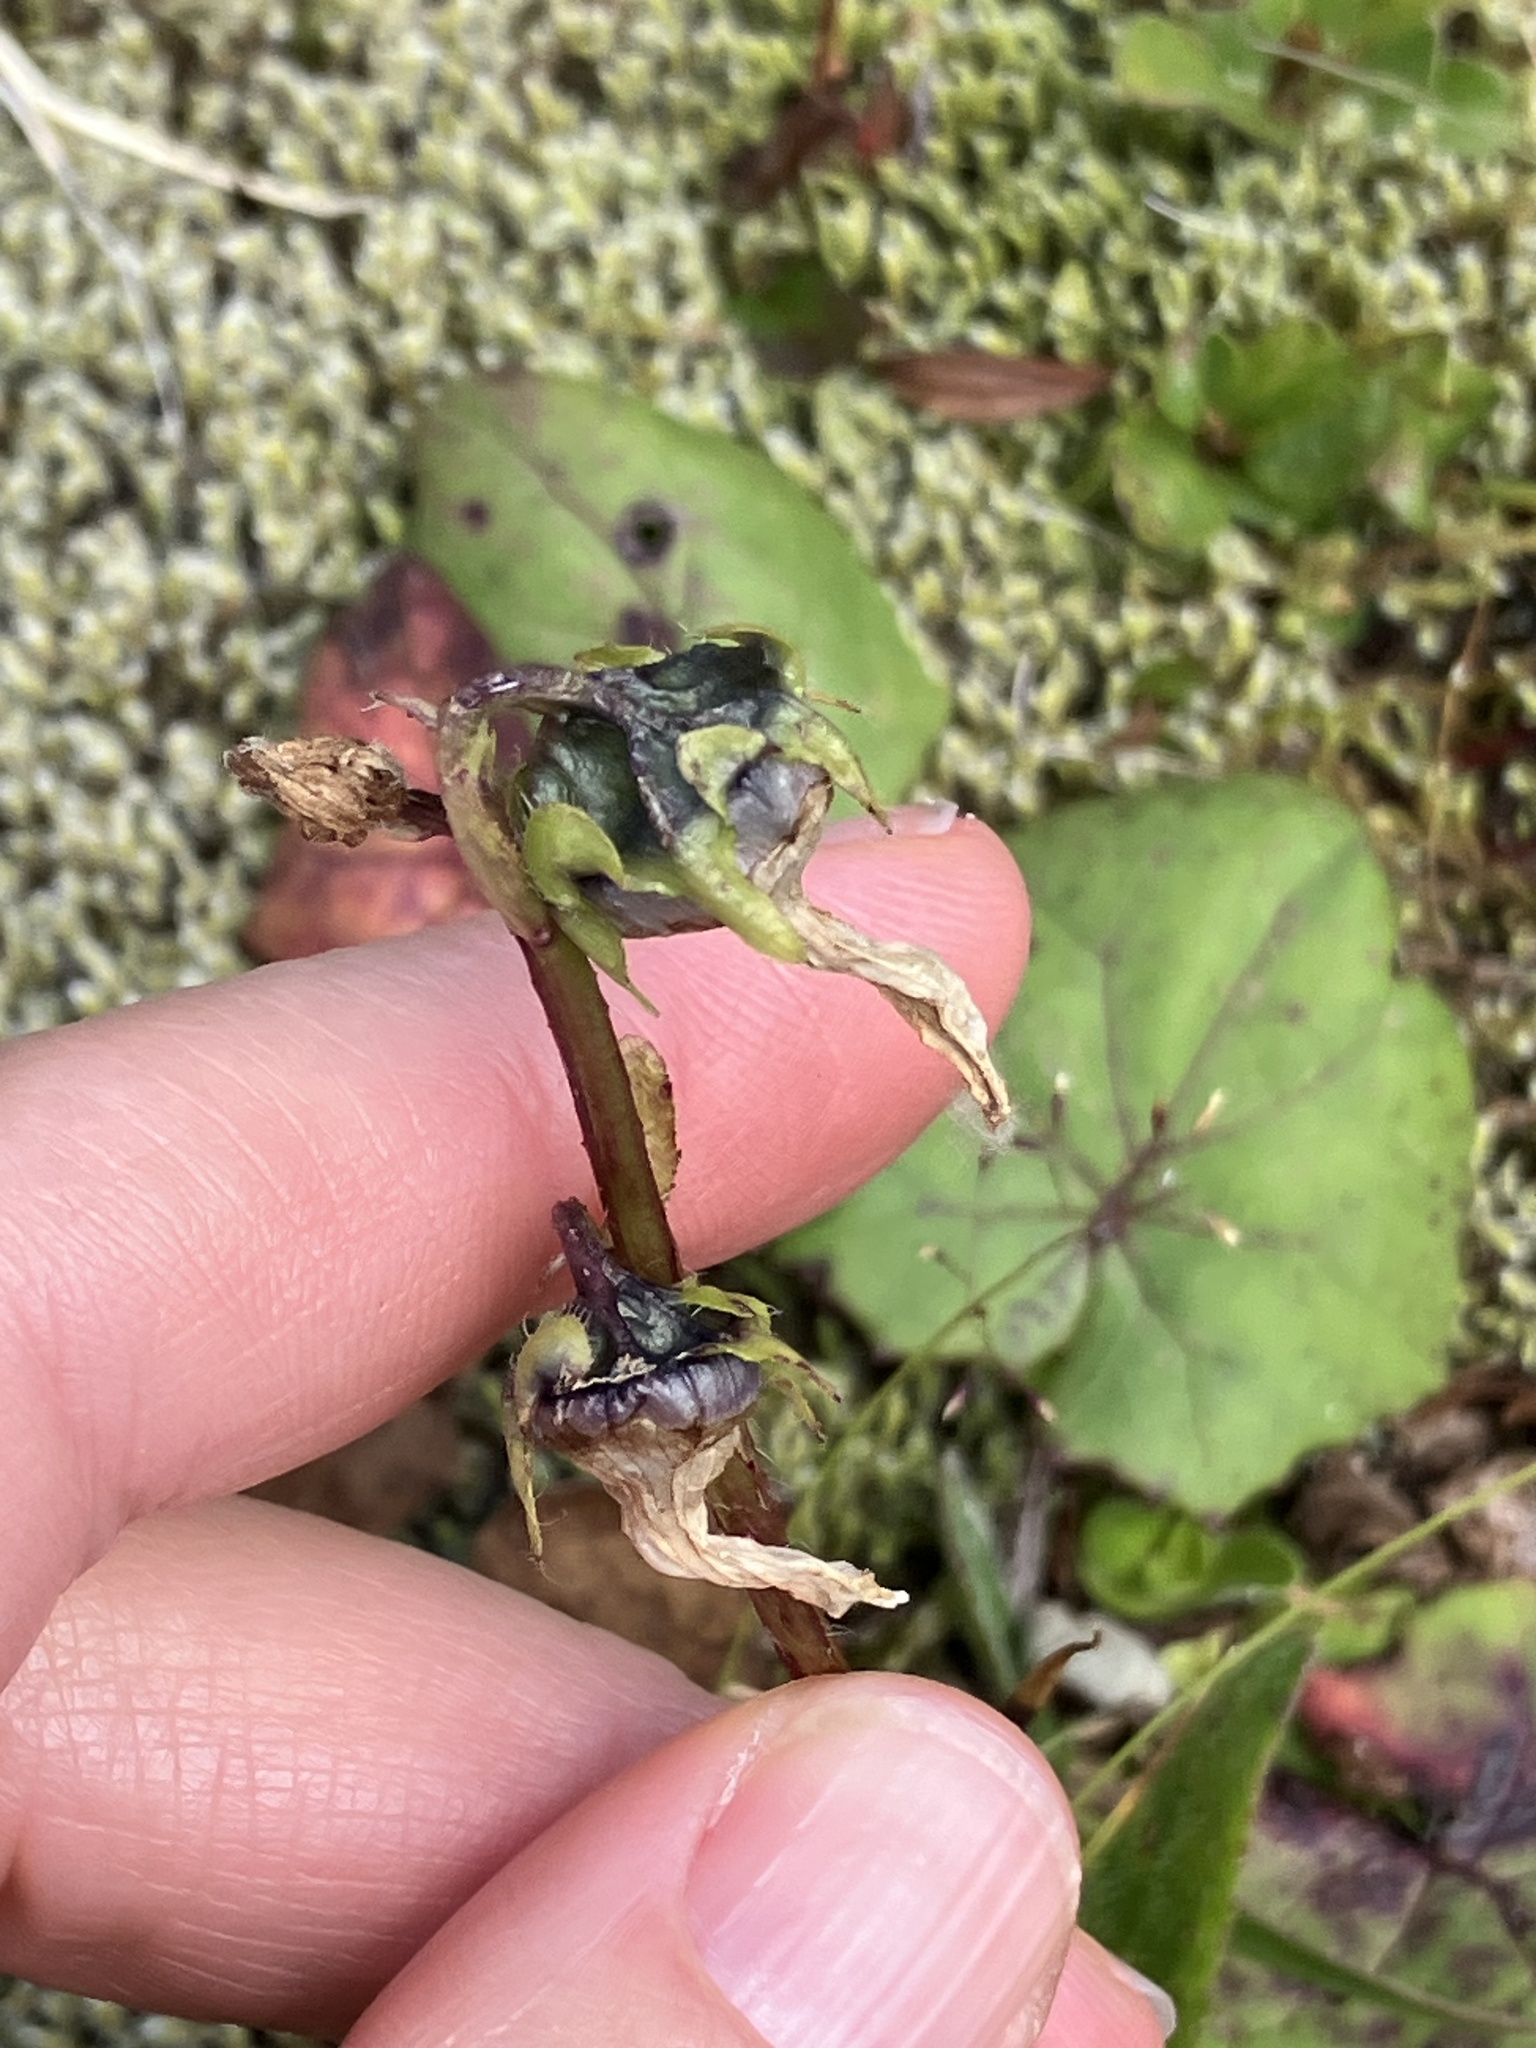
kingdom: Plantae
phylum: Tracheophyta
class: Magnoliopsida
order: Asterales
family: Campanulaceae
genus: Campanula
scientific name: Campanula barbata
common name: Bearded bellflower
